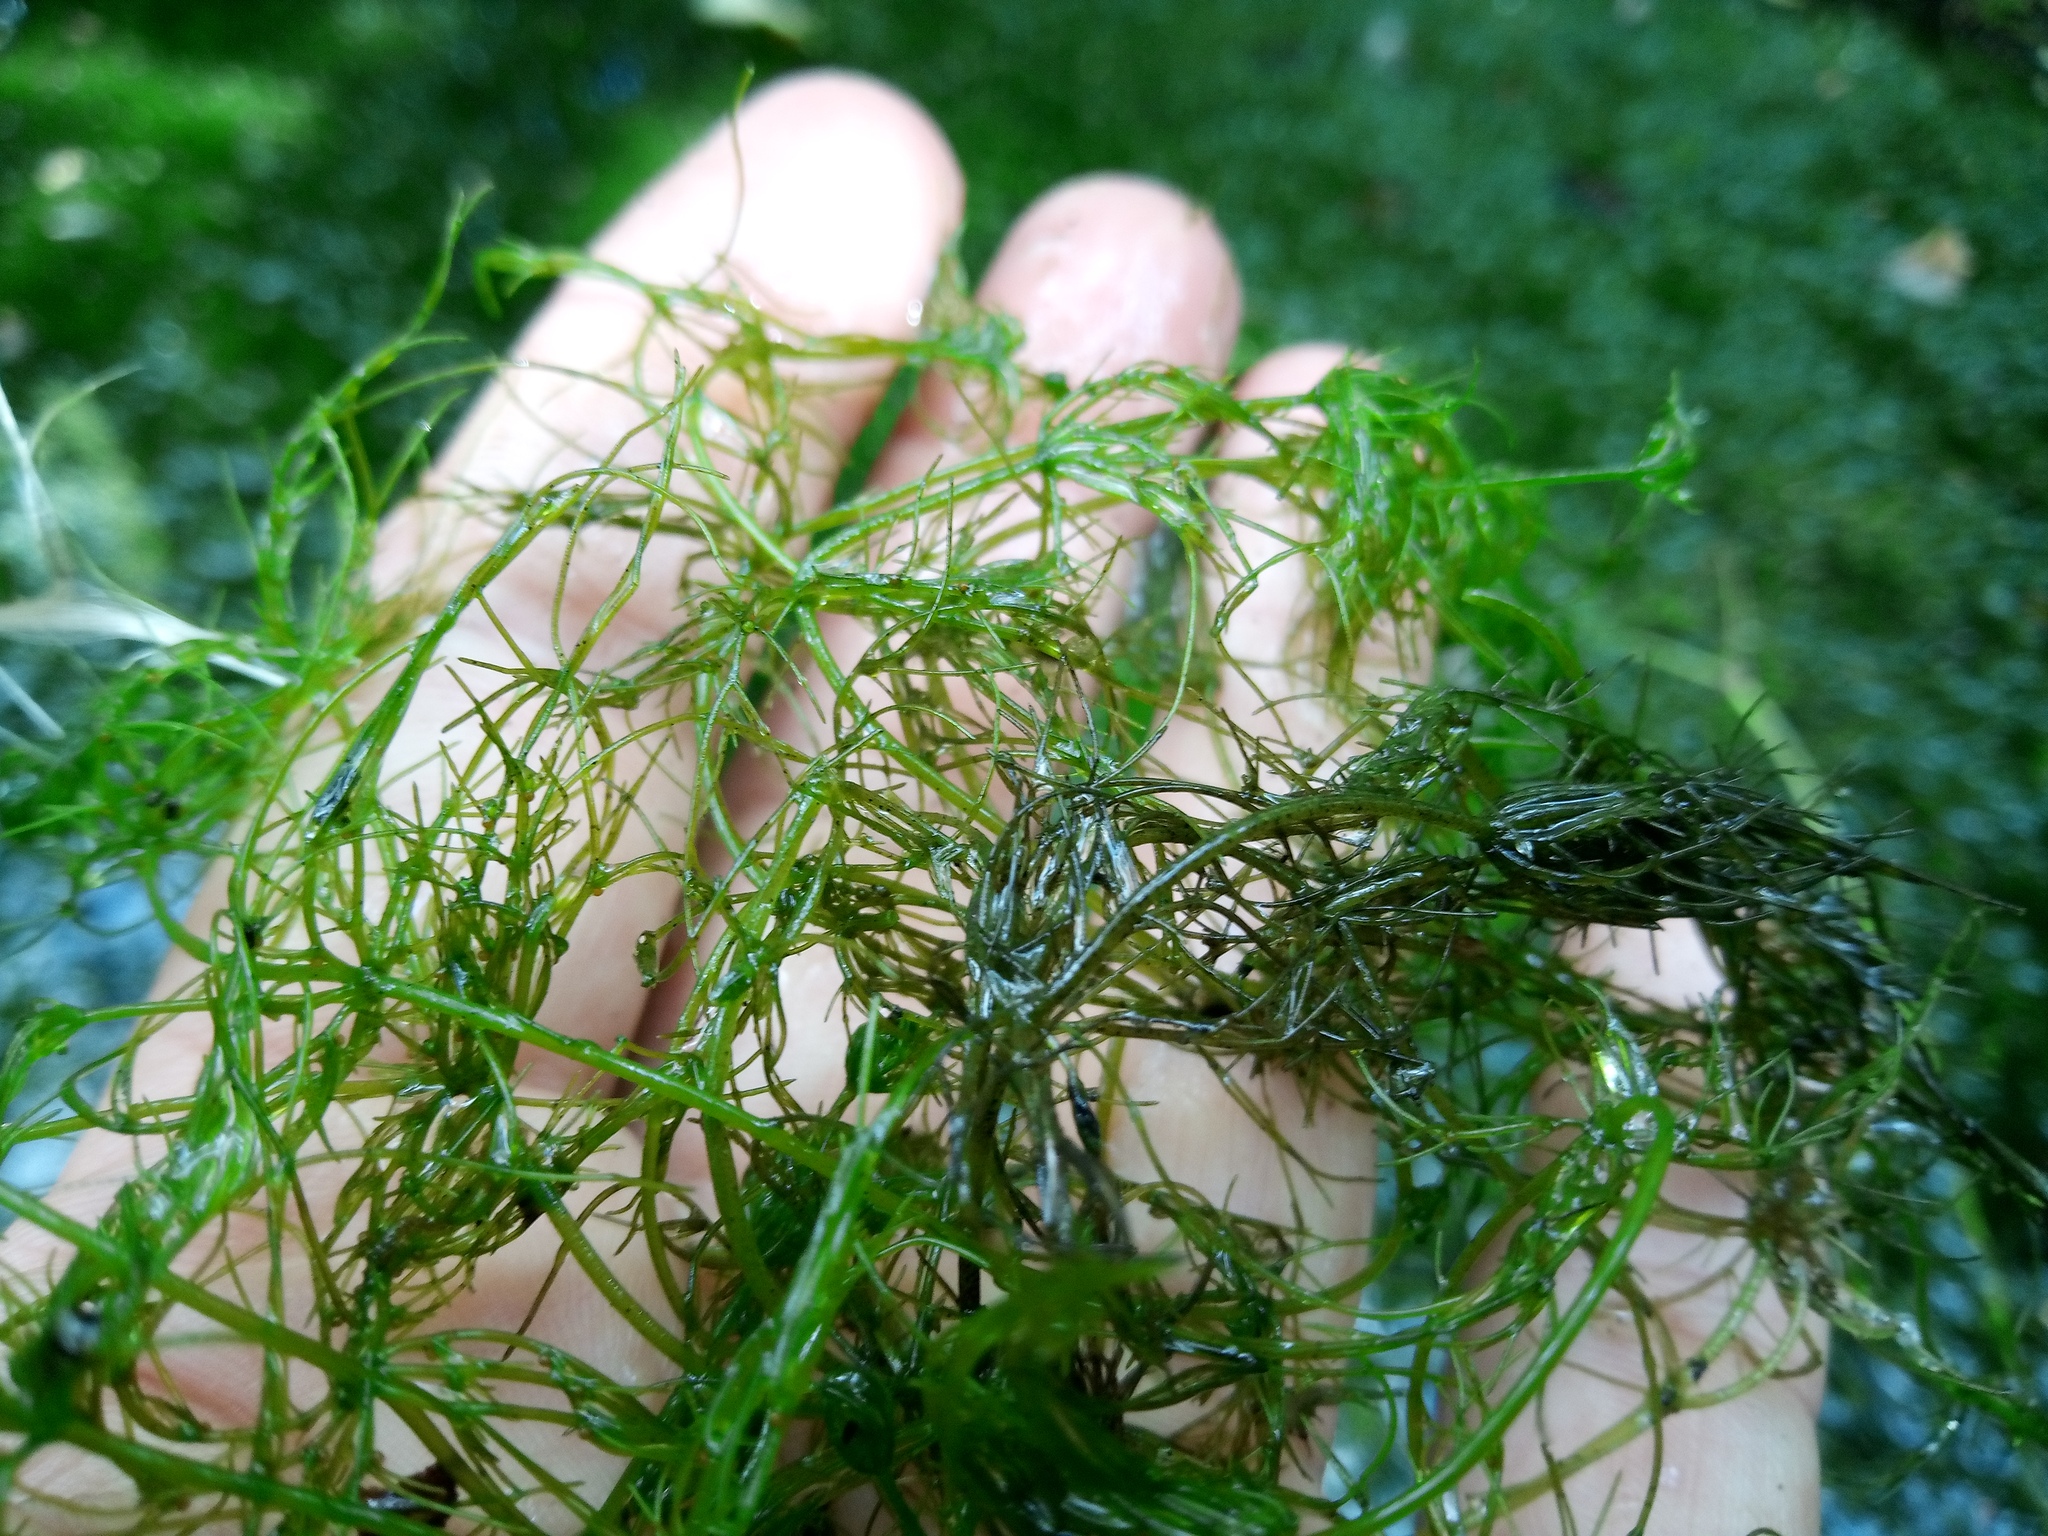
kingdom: Plantae
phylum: Charophyta
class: Charophyceae
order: Charales
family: Characeae
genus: Chara
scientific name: Chara vulgaris
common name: Common stonewort
